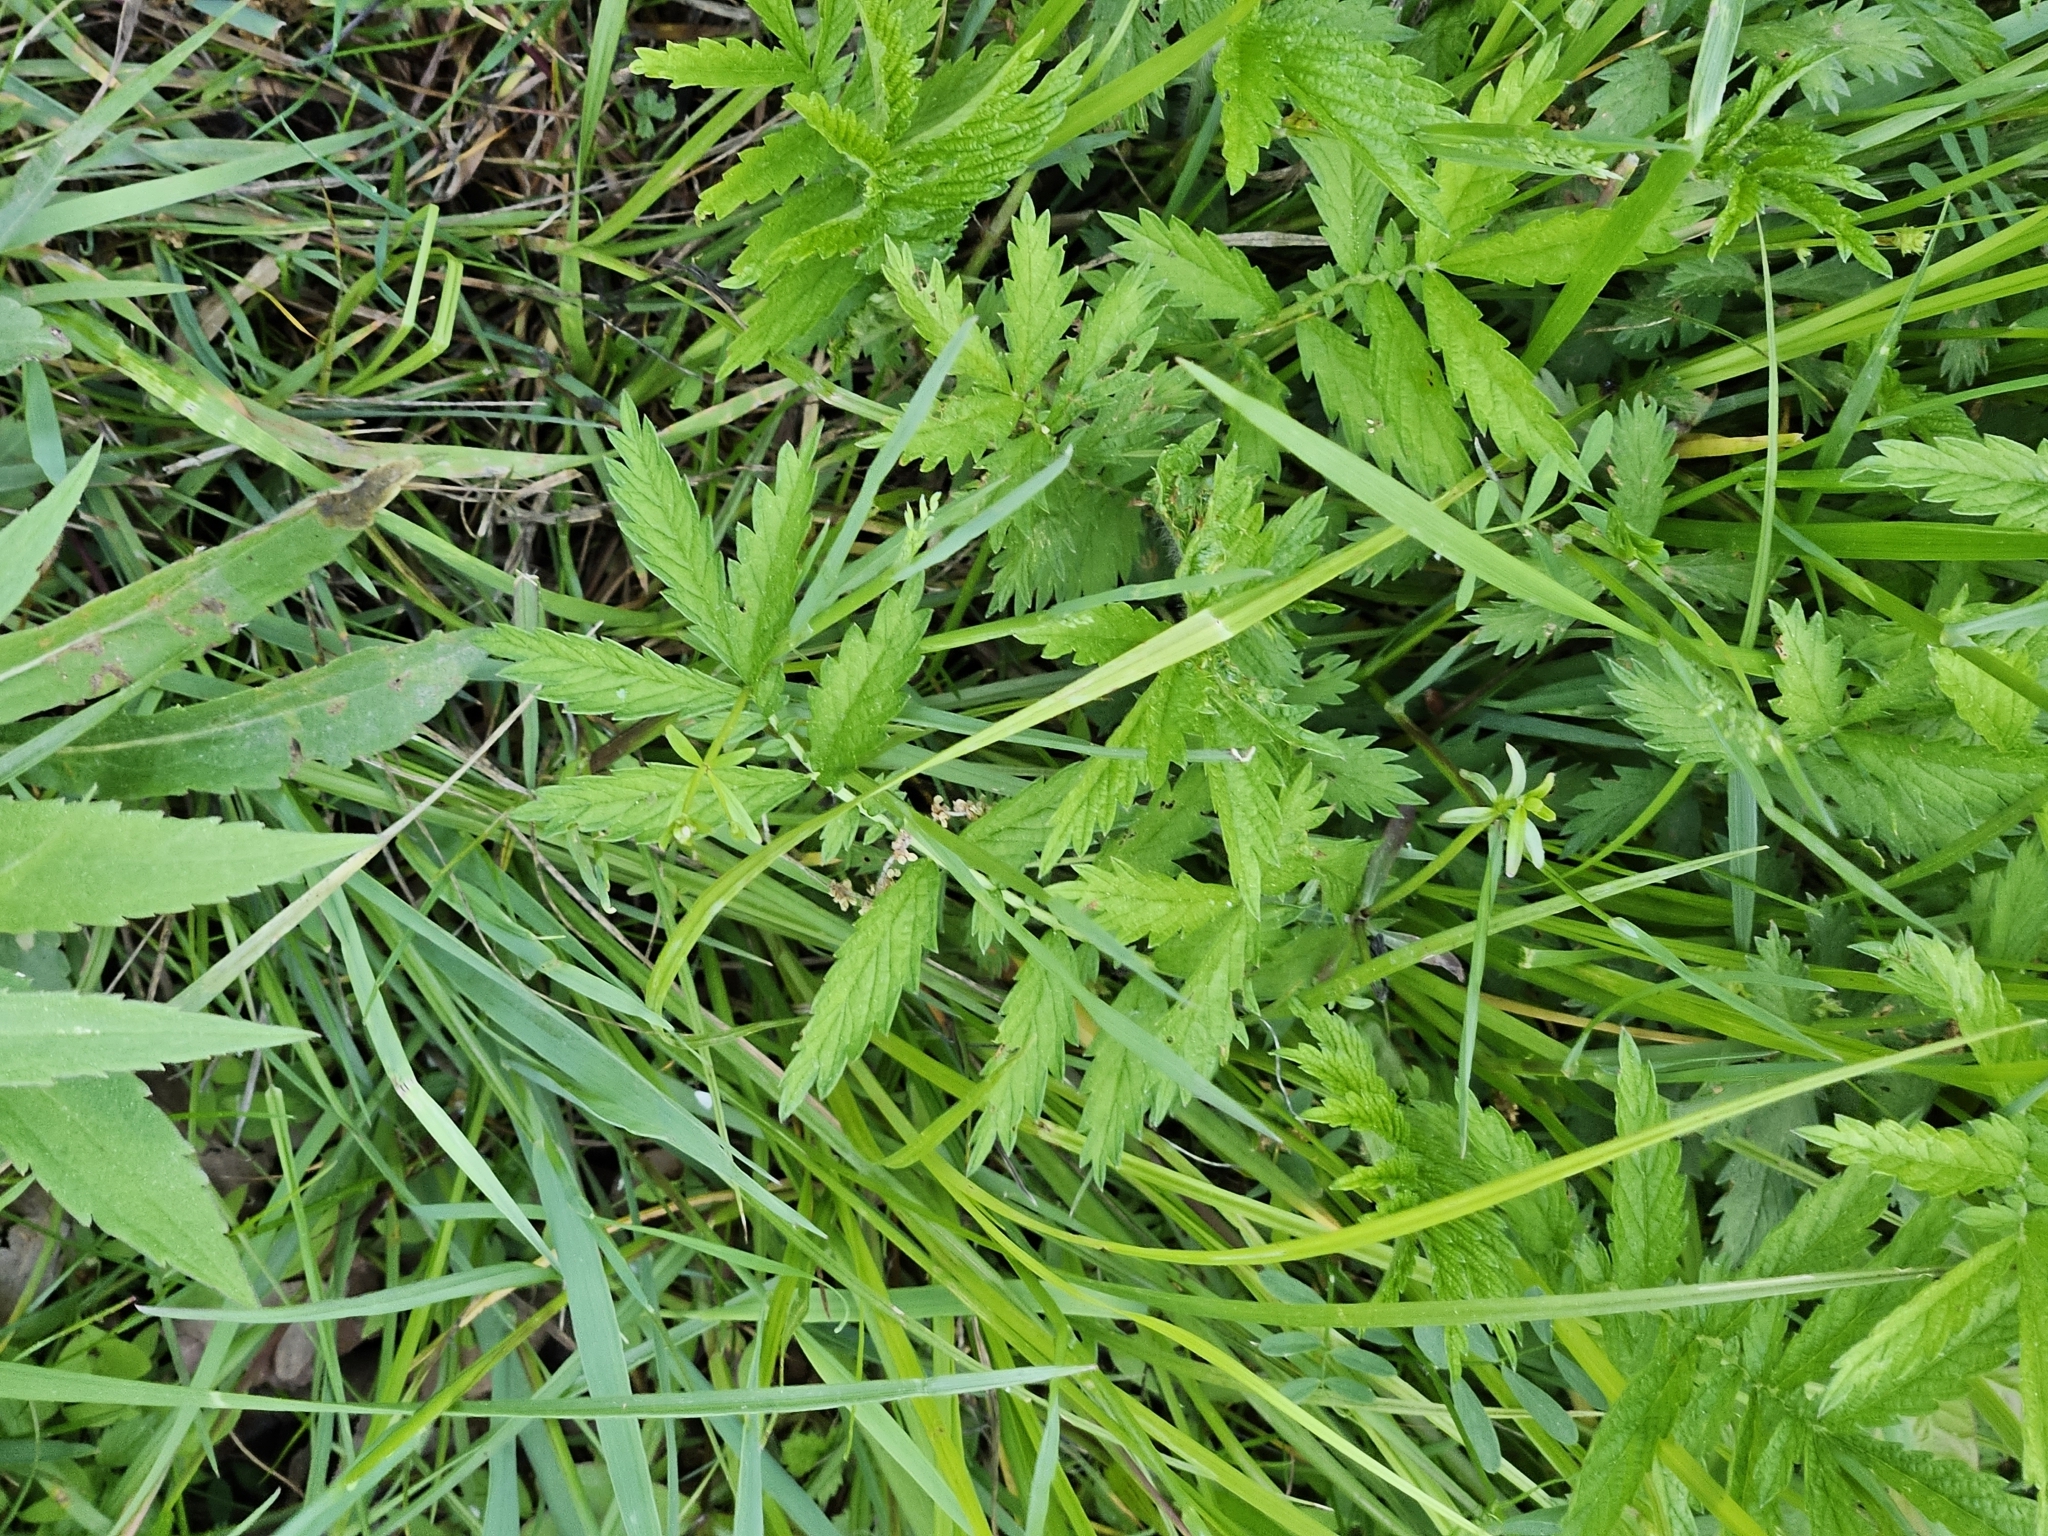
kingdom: Plantae
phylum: Tracheophyta
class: Magnoliopsida
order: Rosales
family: Rosaceae
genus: Agrimonia
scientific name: Agrimonia parviflora
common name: Harvest-lice
